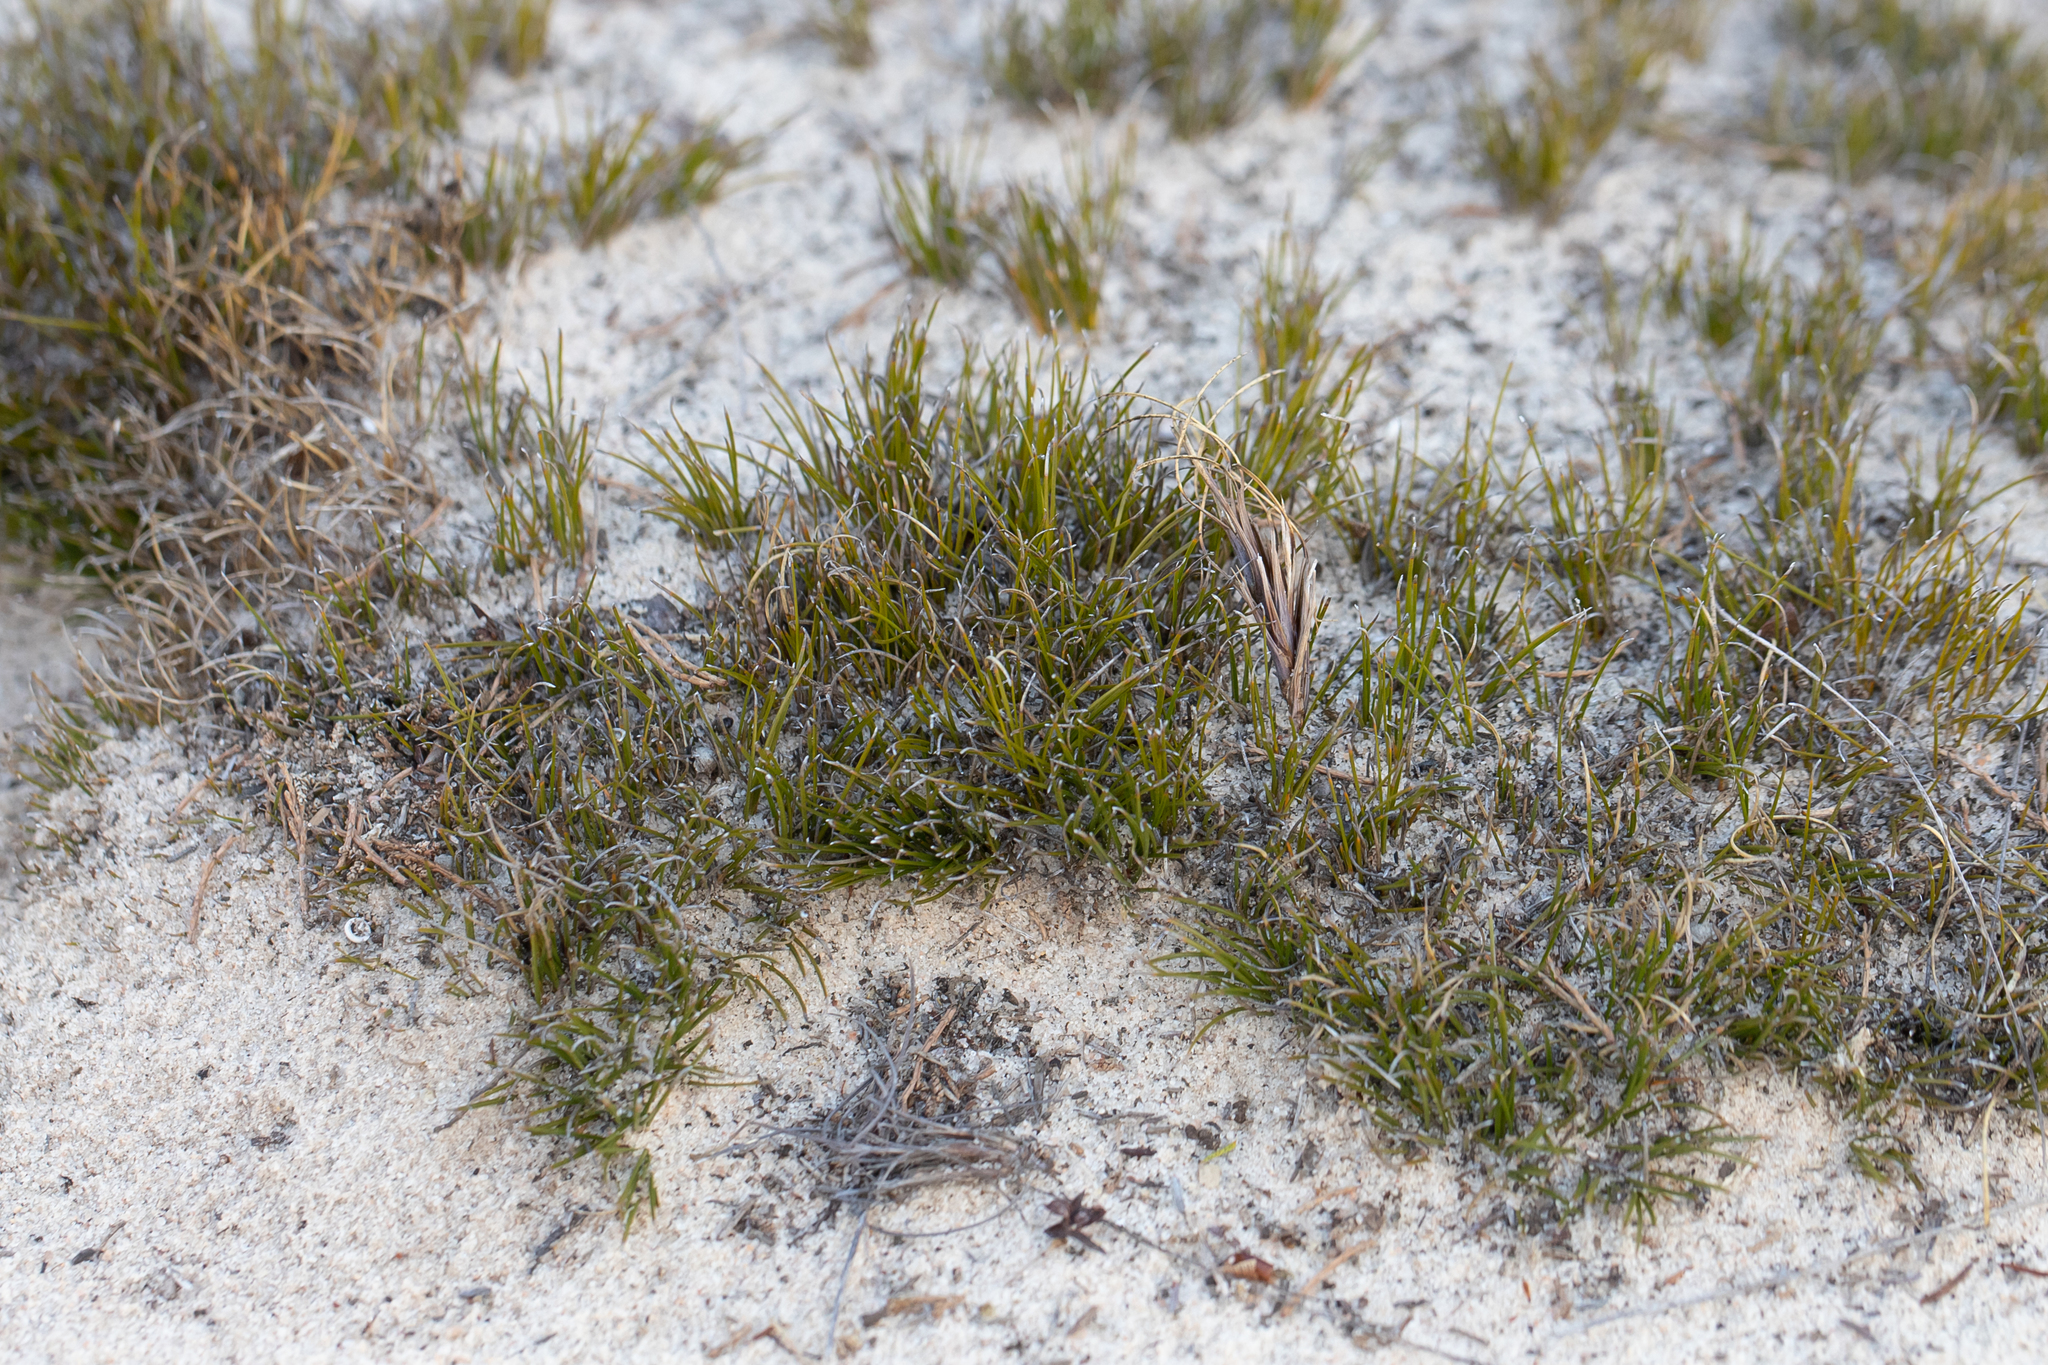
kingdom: Plantae
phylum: Tracheophyta
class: Liliopsida
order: Poales
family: Cyperaceae
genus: Schoenus
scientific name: Schoenus breviculmis
